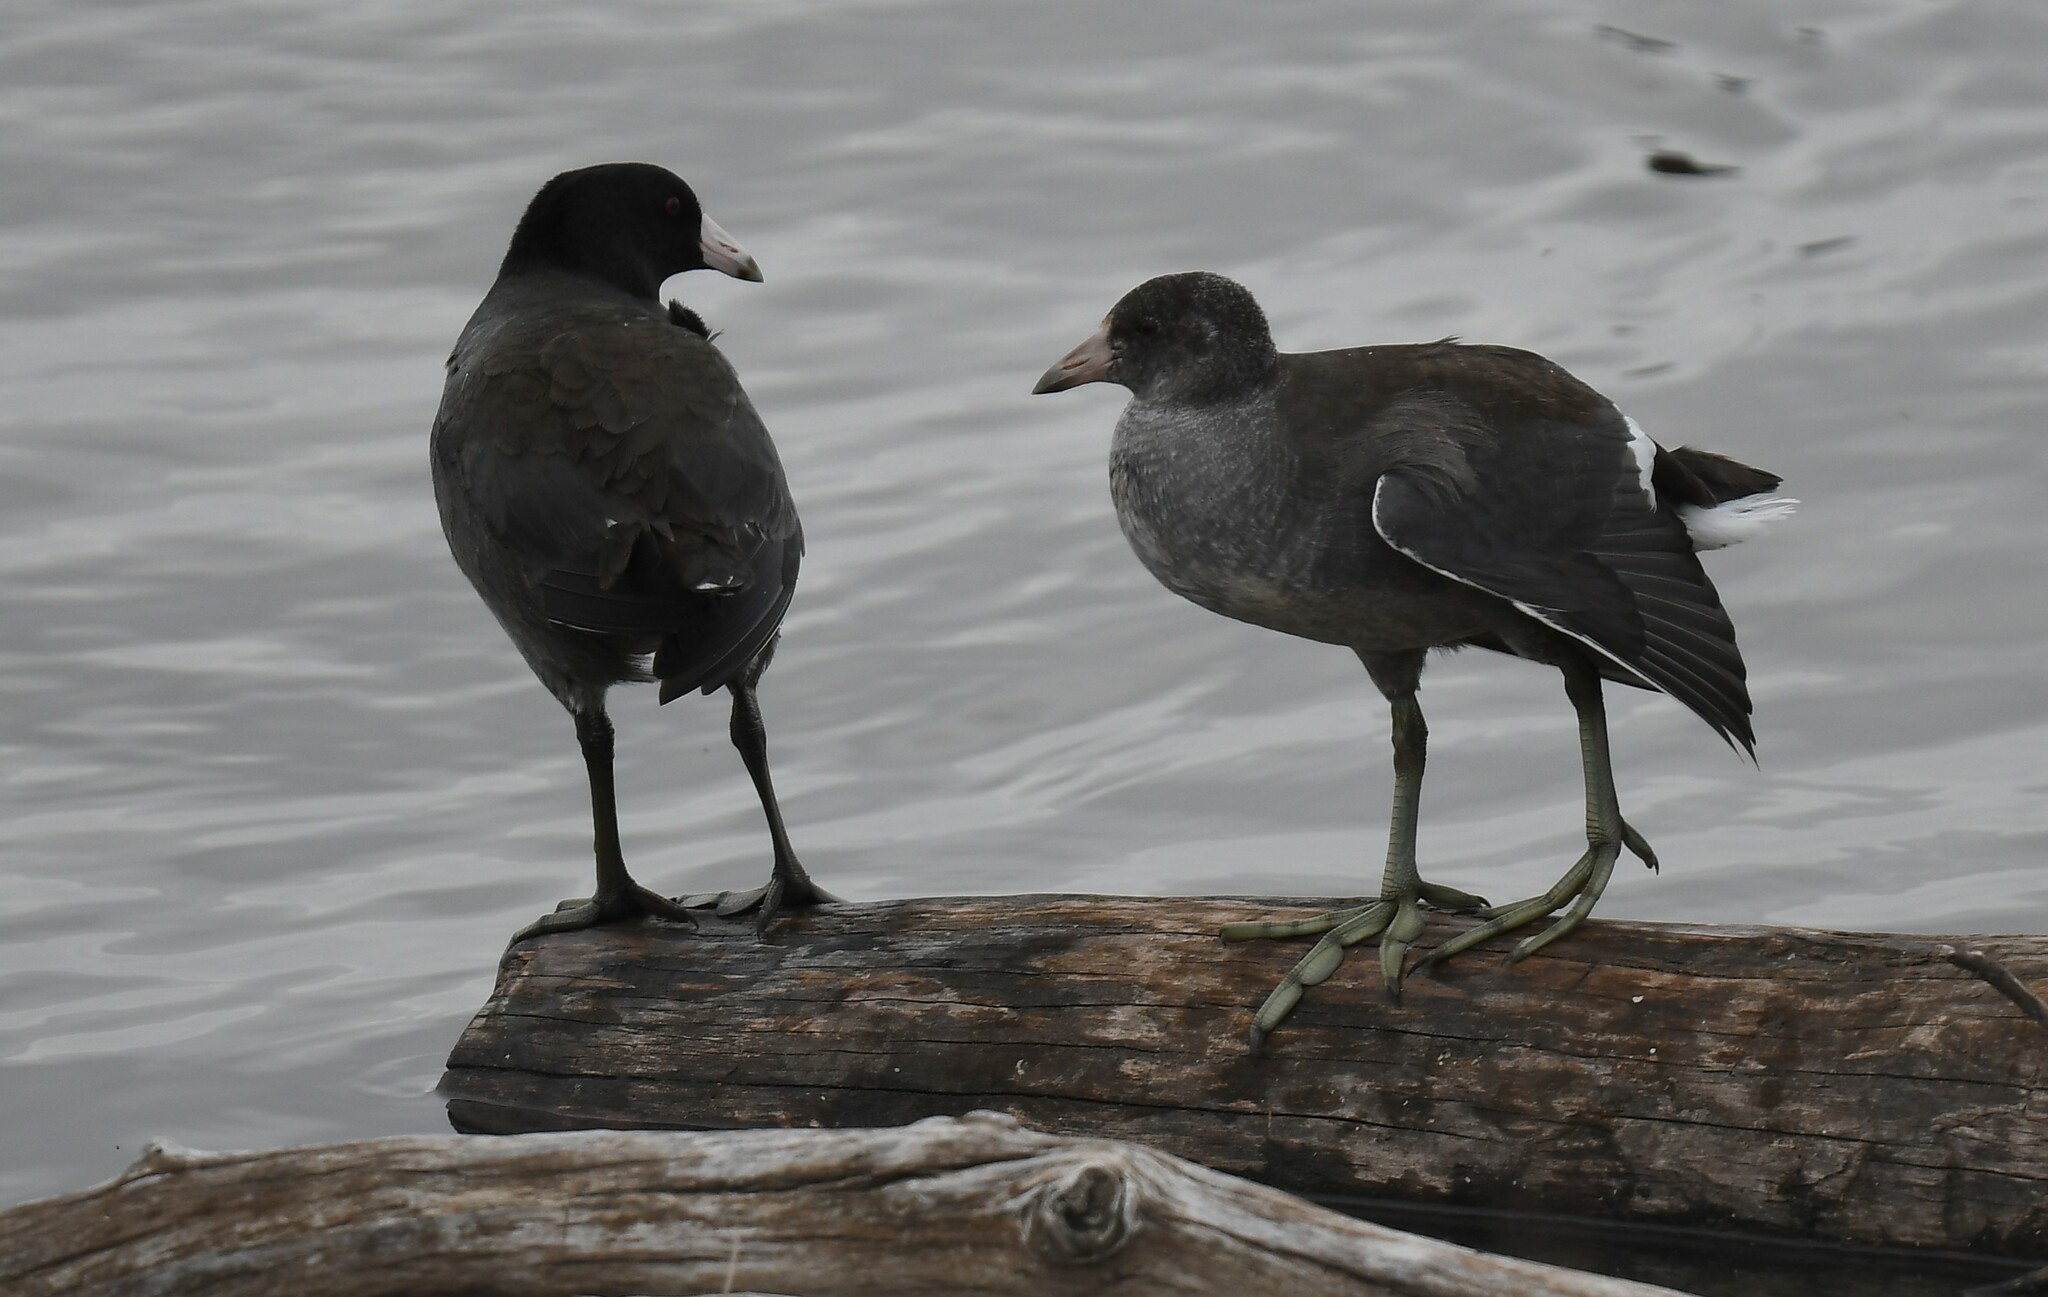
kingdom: Animalia
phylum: Chordata
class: Aves
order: Gruiformes
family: Rallidae
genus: Fulica
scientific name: Fulica americana
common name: American coot
